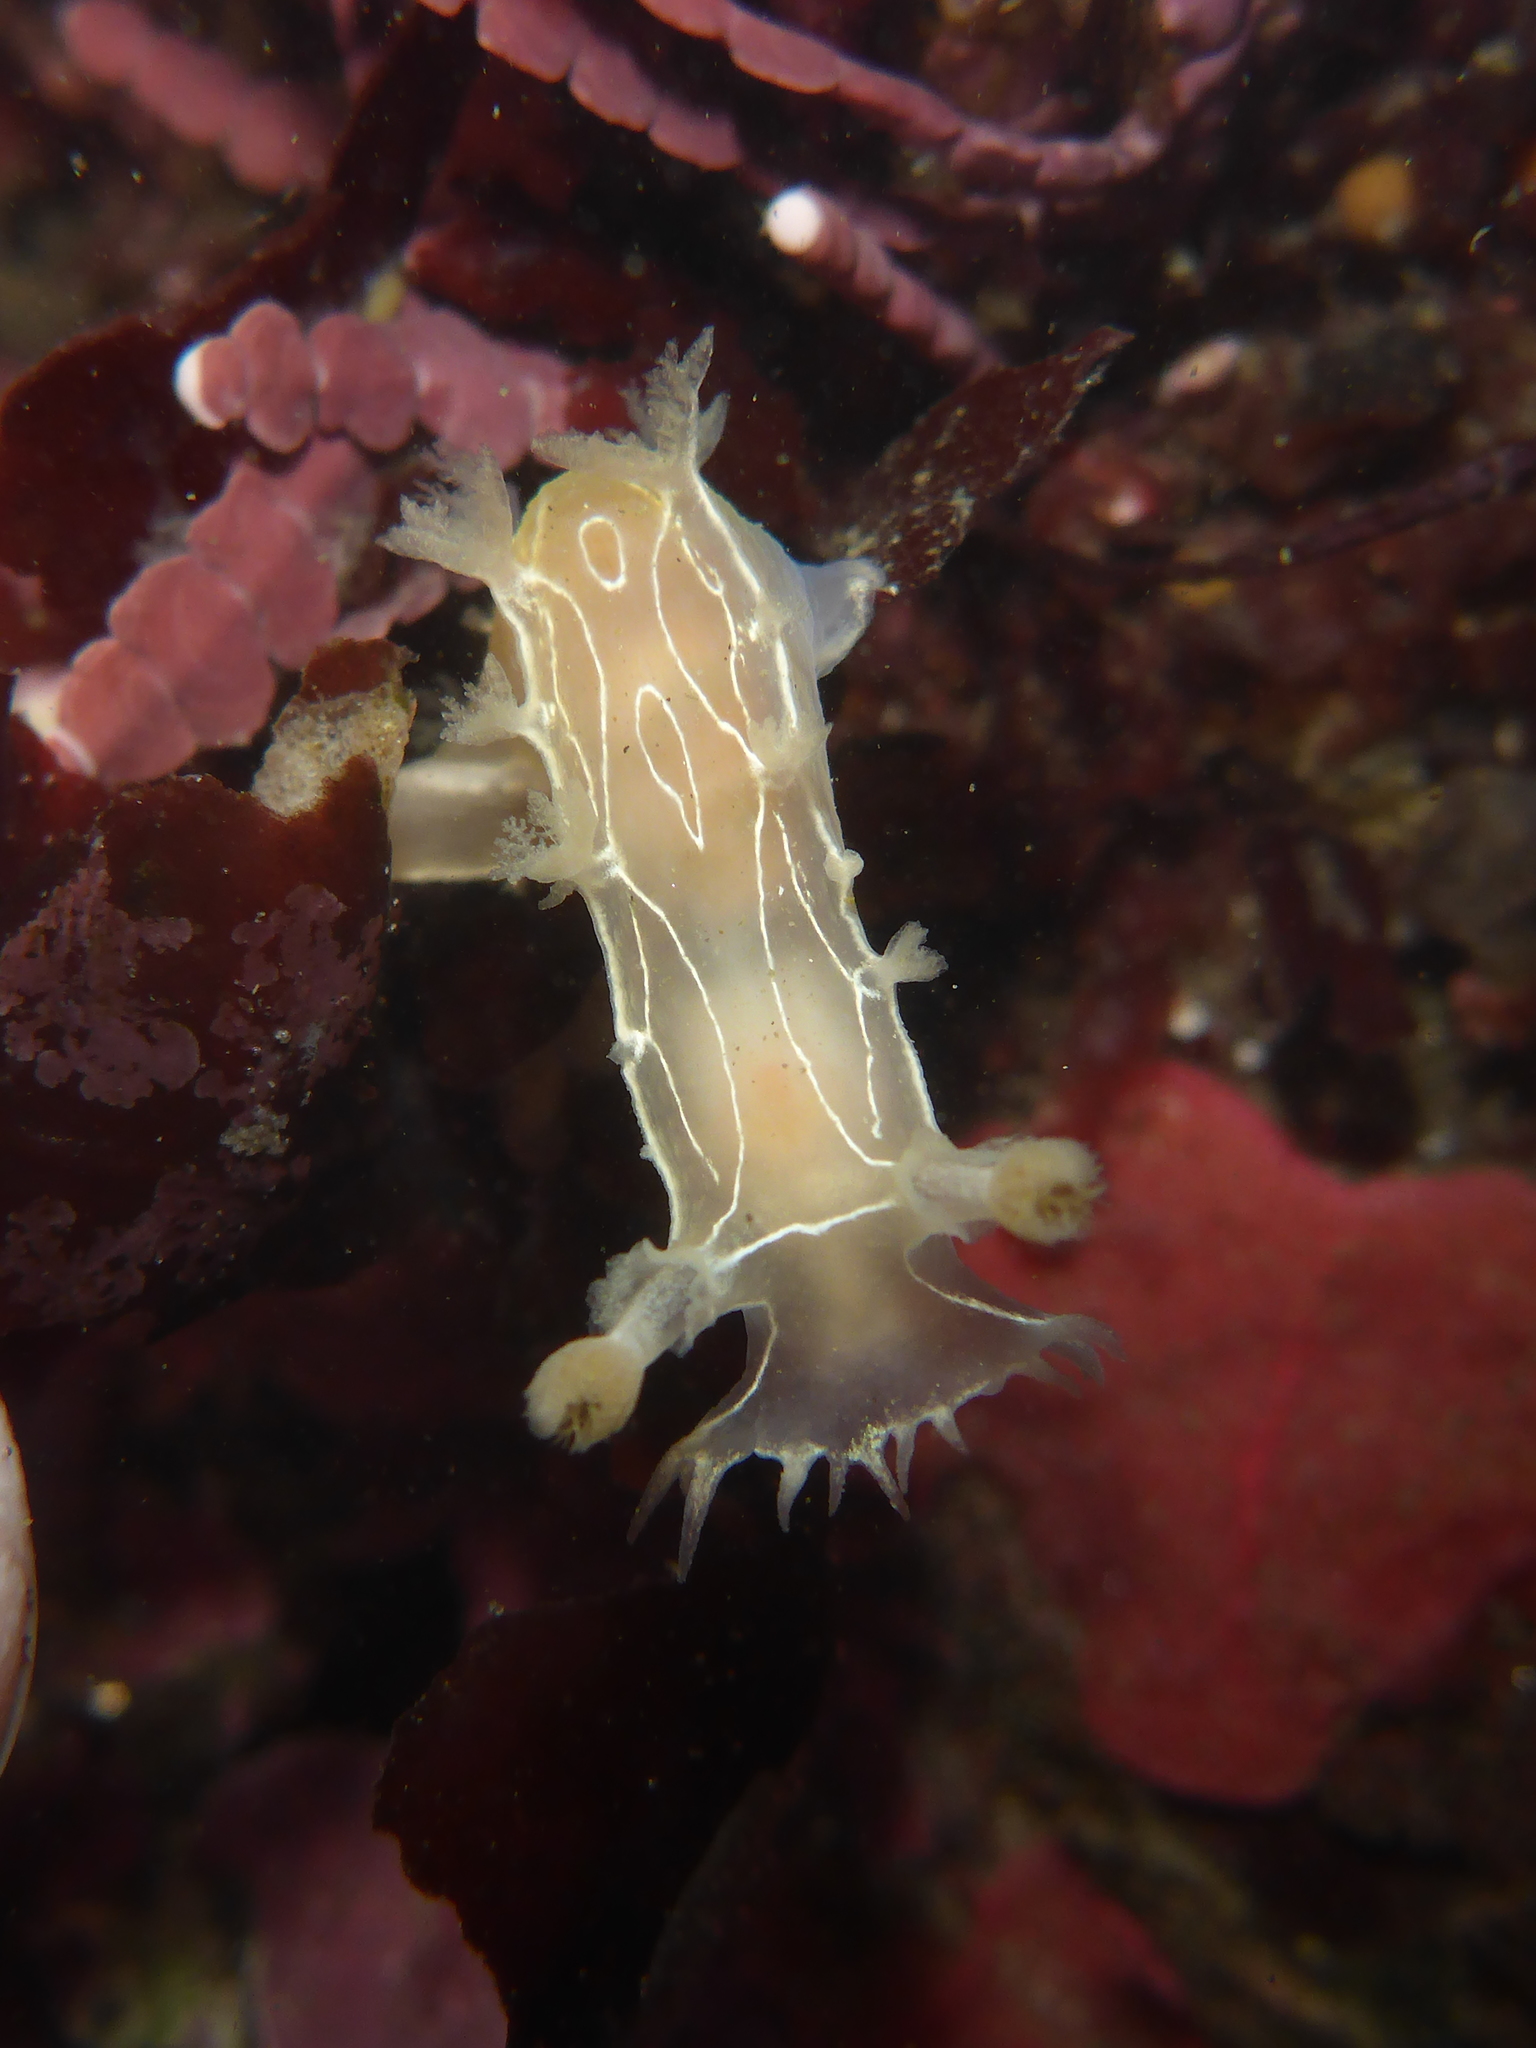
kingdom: Animalia
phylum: Mollusca
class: Gastropoda
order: Nudibranchia
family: Tritoniidae
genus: Tritonia
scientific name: Tritonia festiva
